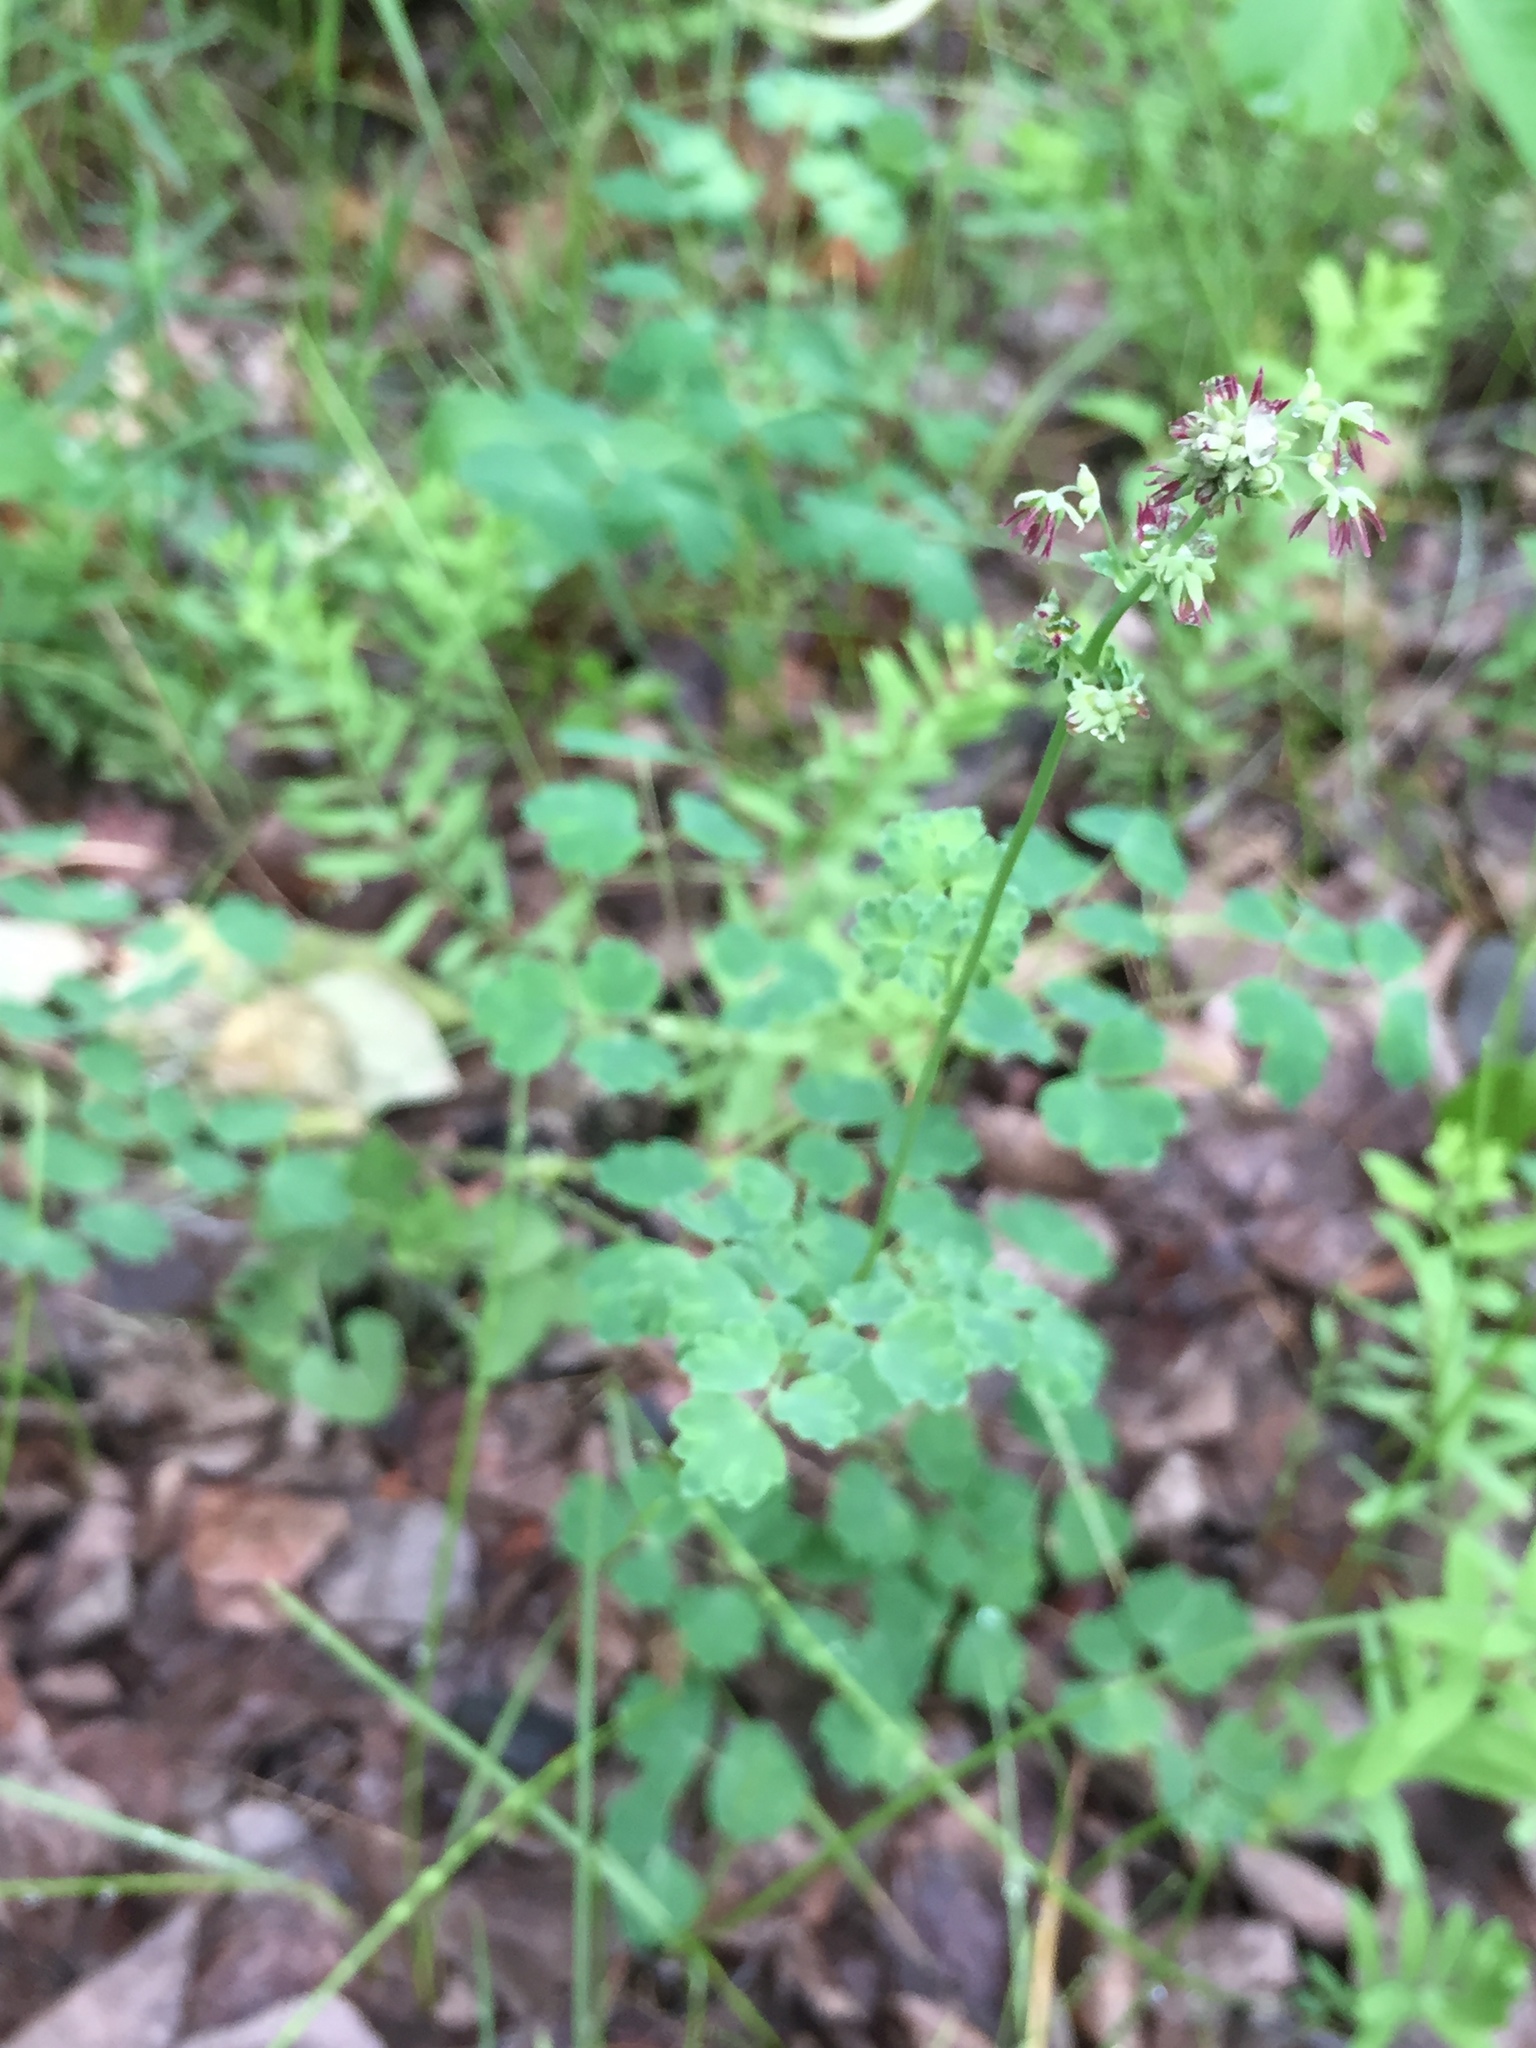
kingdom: Plantae
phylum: Tracheophyta
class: Magnoliopsida
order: Ranunculales
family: Ranunculaceae
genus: Thalictrum
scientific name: Thalictrum venulosum
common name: Early meadow-rue
